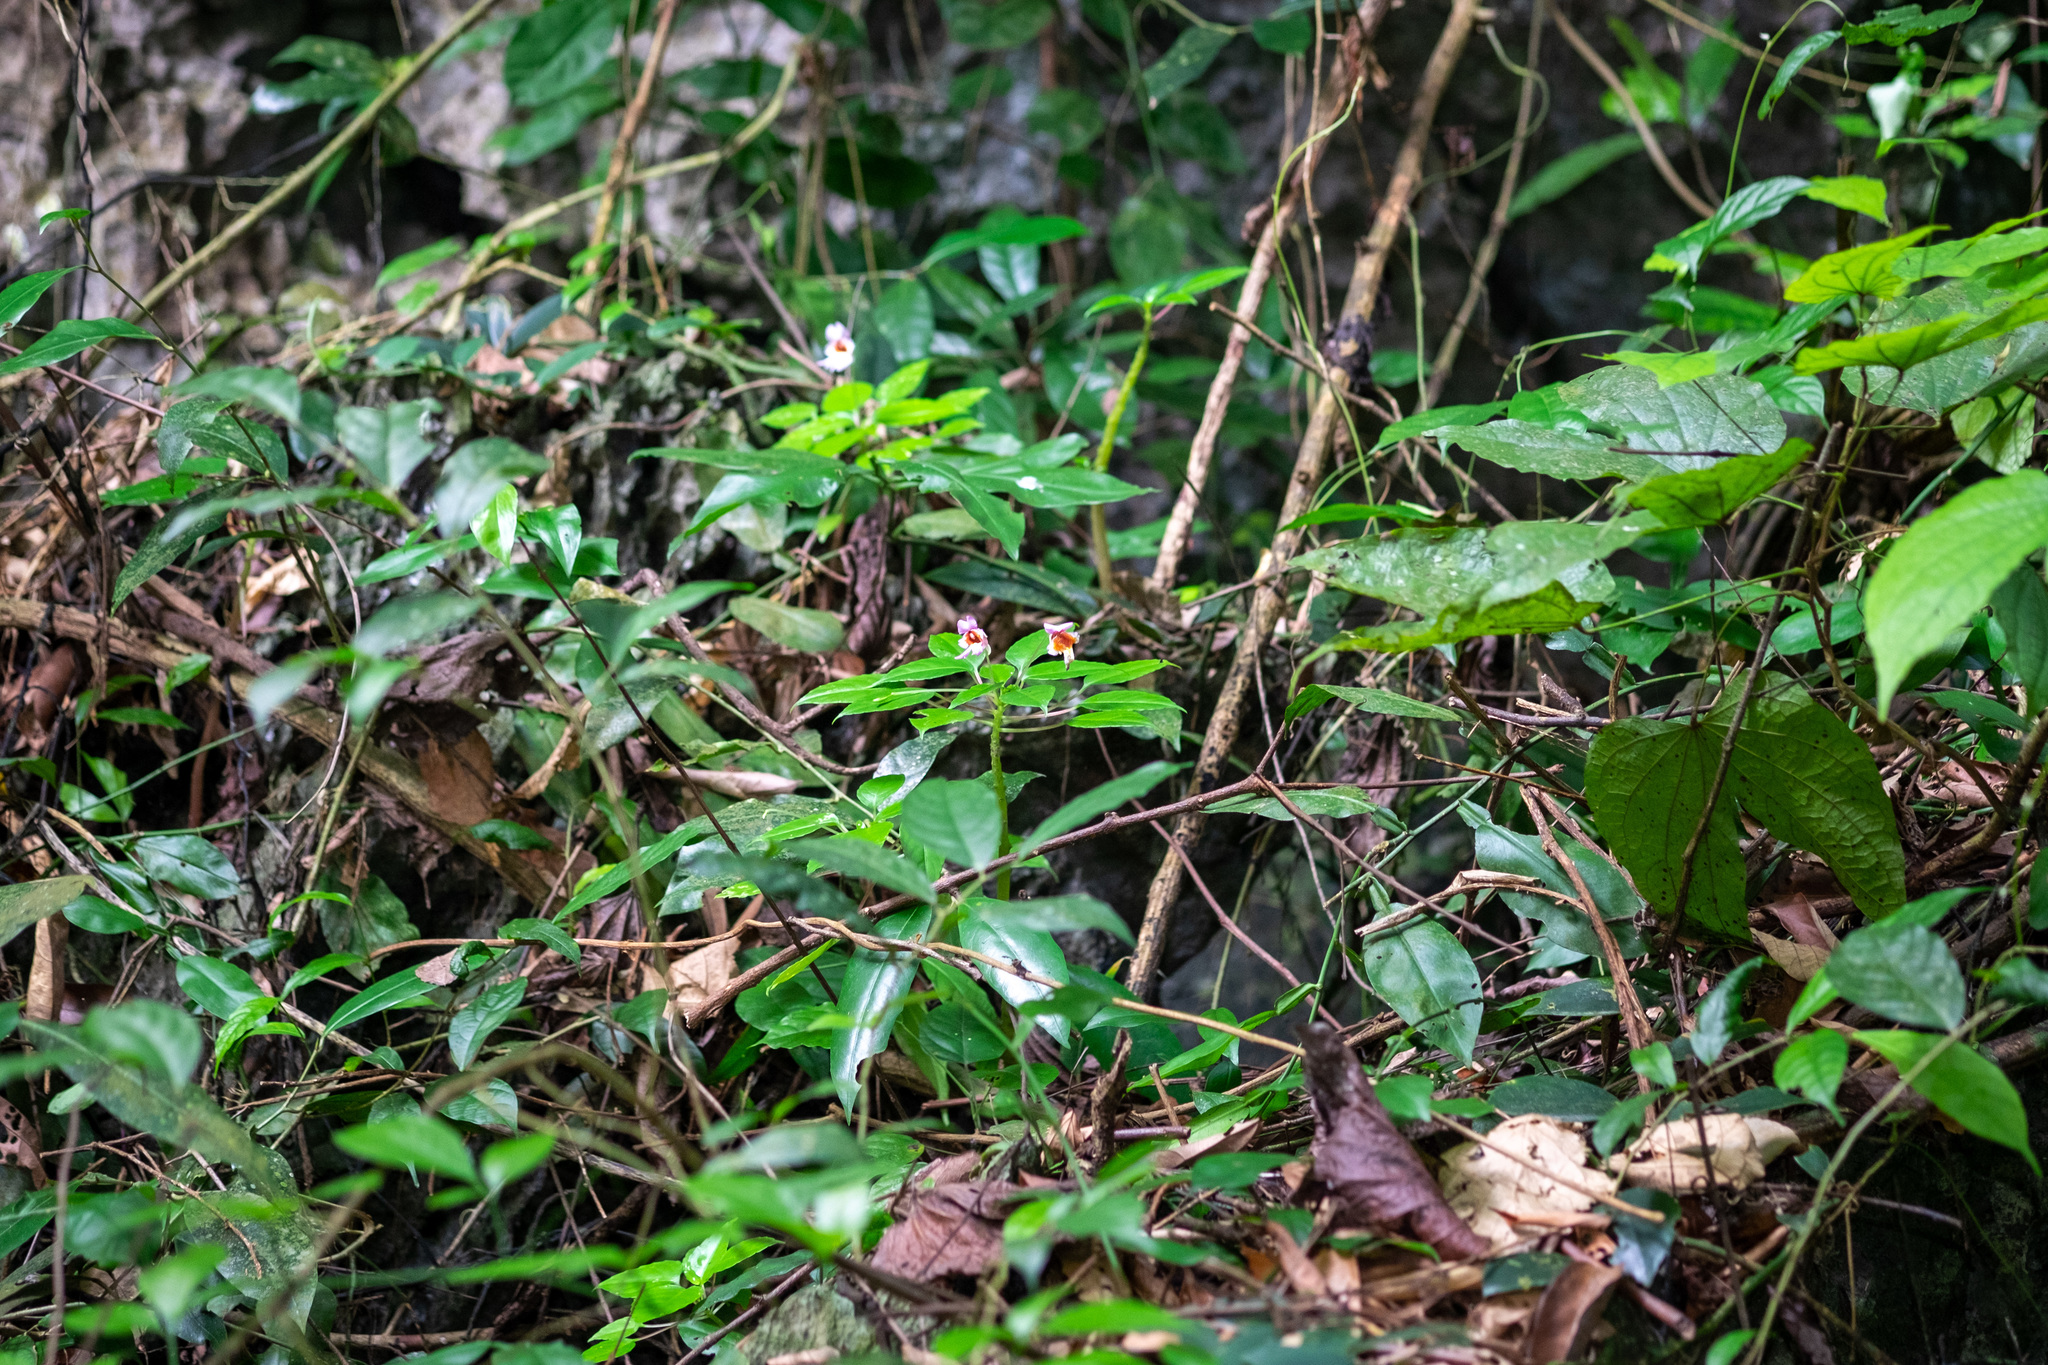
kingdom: Plantae
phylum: Tracheophyta
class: Magnoliopsida
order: Ericales
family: Balsaminaceae
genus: Impatiens
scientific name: Impatiens bonii
